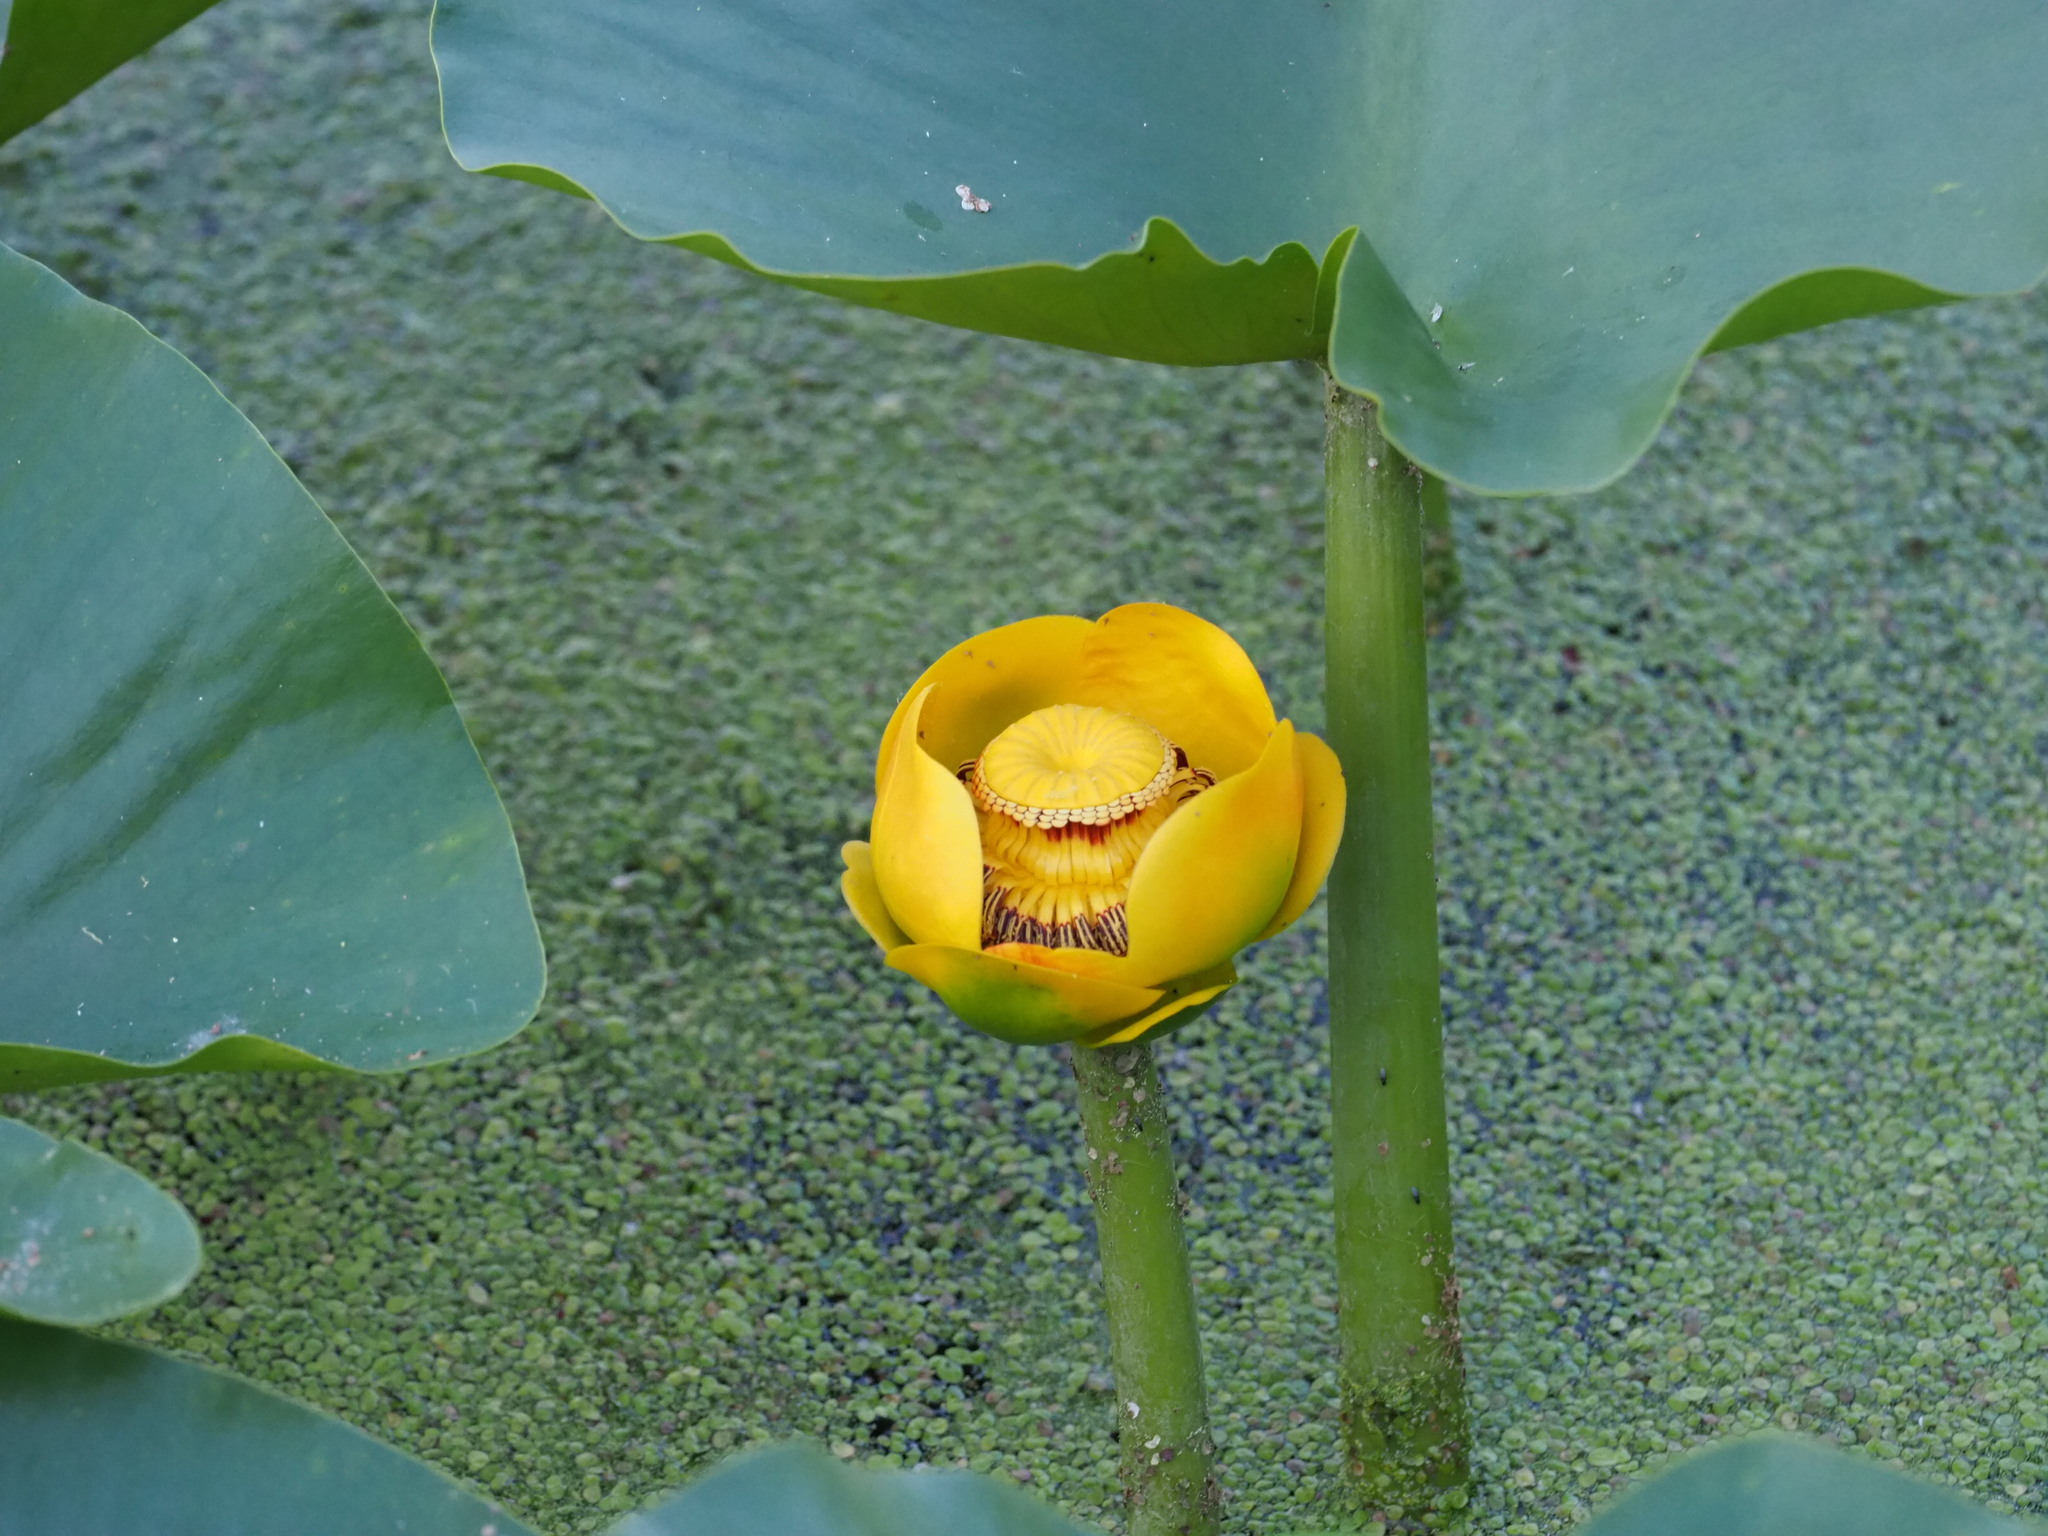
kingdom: Plantae
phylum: Tracheophyta
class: Magnoliopsida
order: Nymphaeales
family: Nymphaeaceae
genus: Nuphar
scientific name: Nuphar polysepala
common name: Rocky mountain cow-lily
